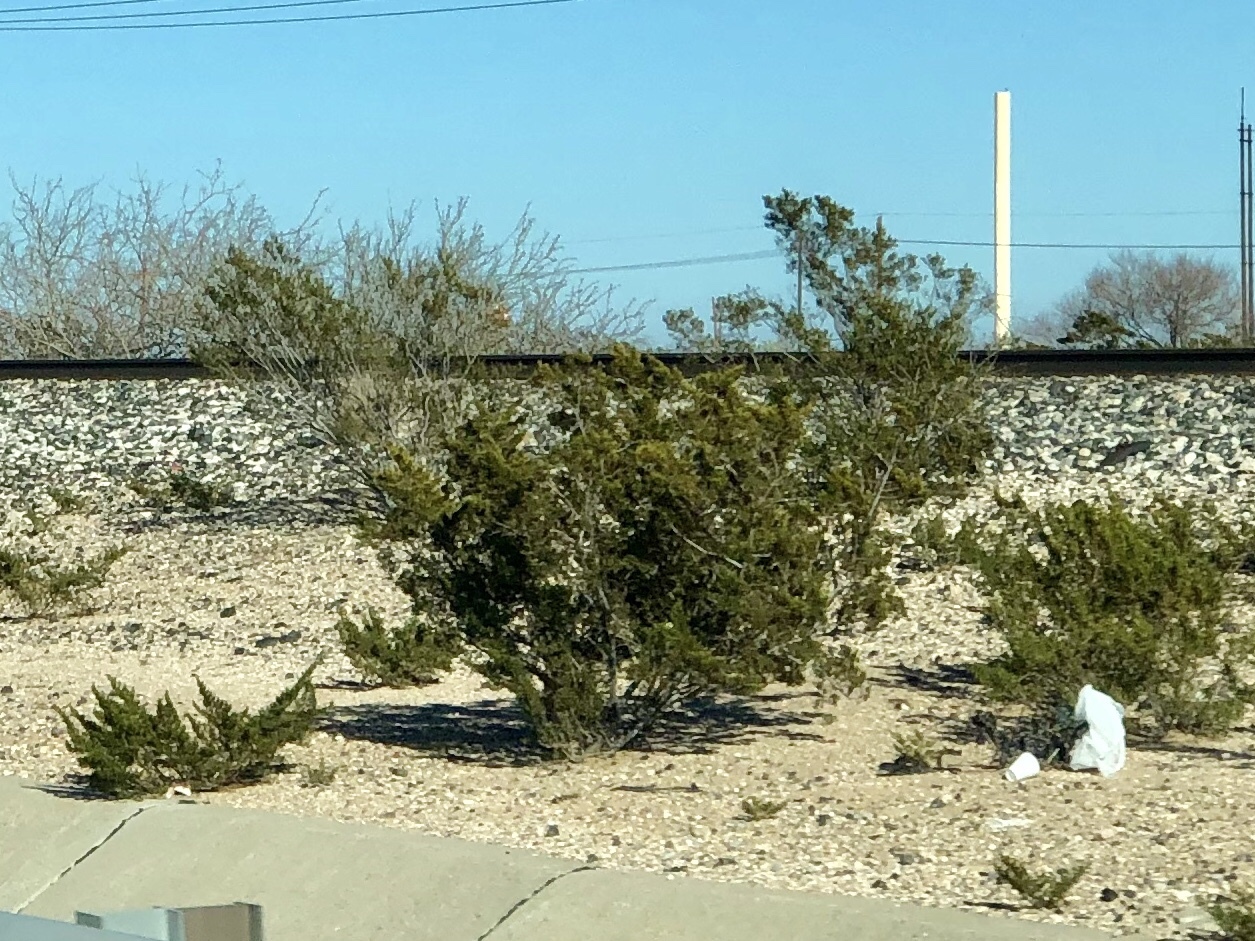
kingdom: Plantae
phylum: Tracheophyta
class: Magnoliopsida
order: Zygophyllales
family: Zygophyllaceae
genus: Larrea
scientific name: Larrea tridentata
